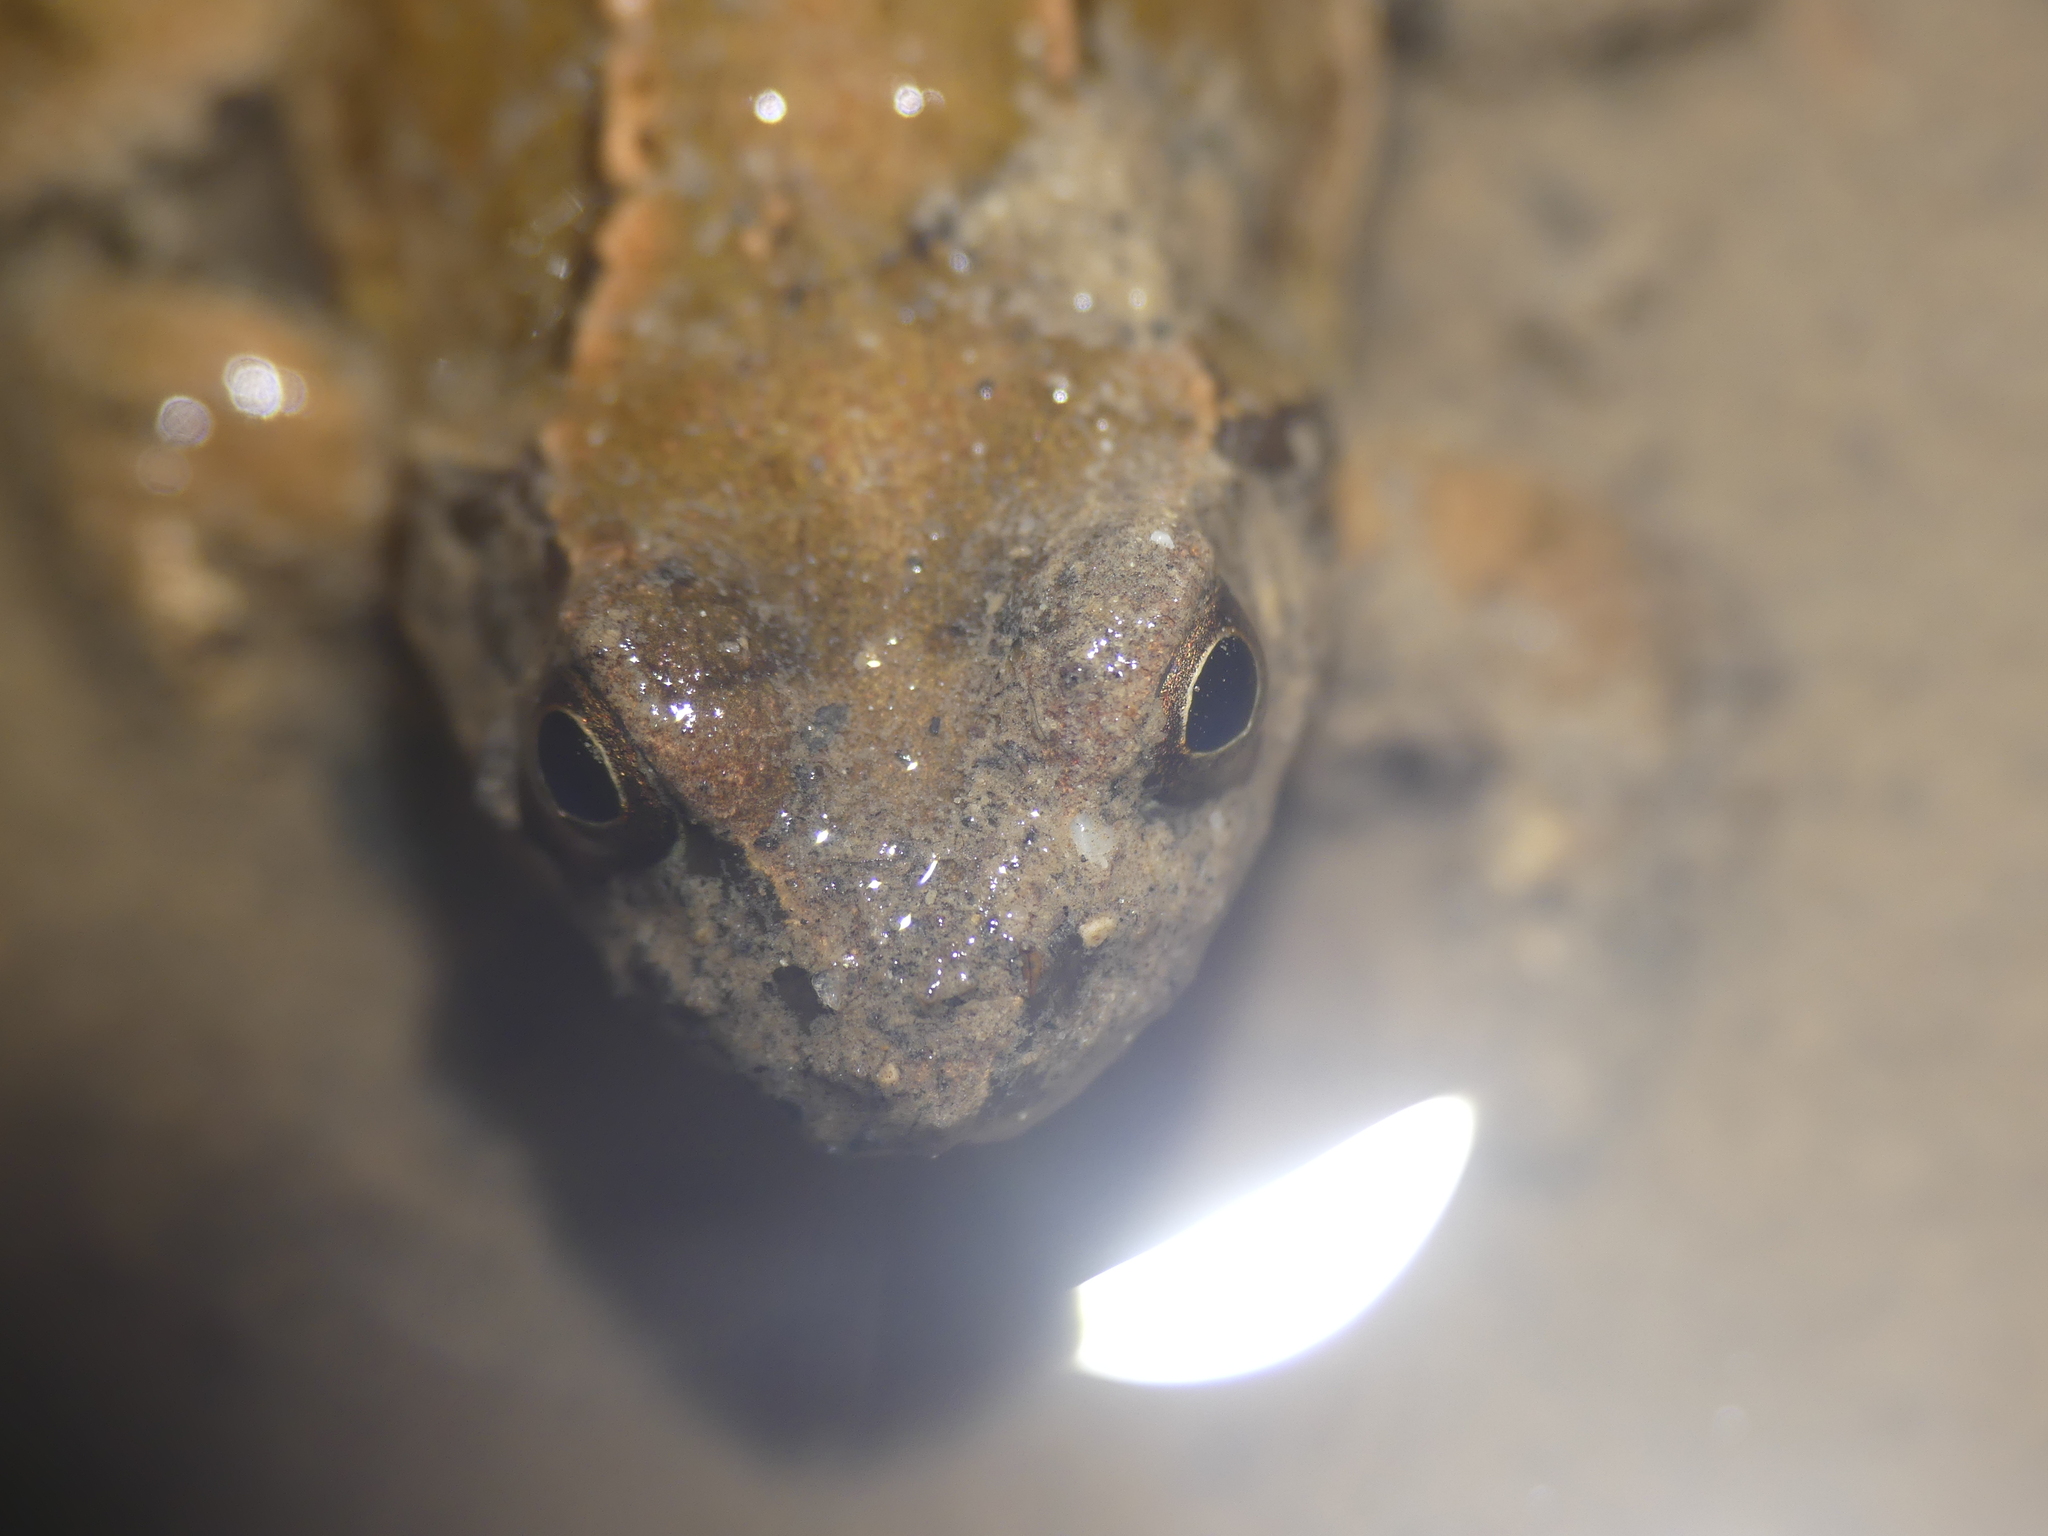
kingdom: Animalia
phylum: Chordata
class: Amphibia
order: Anura
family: Ranidae
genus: Rana
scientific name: Rana temporaria
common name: Common frog
